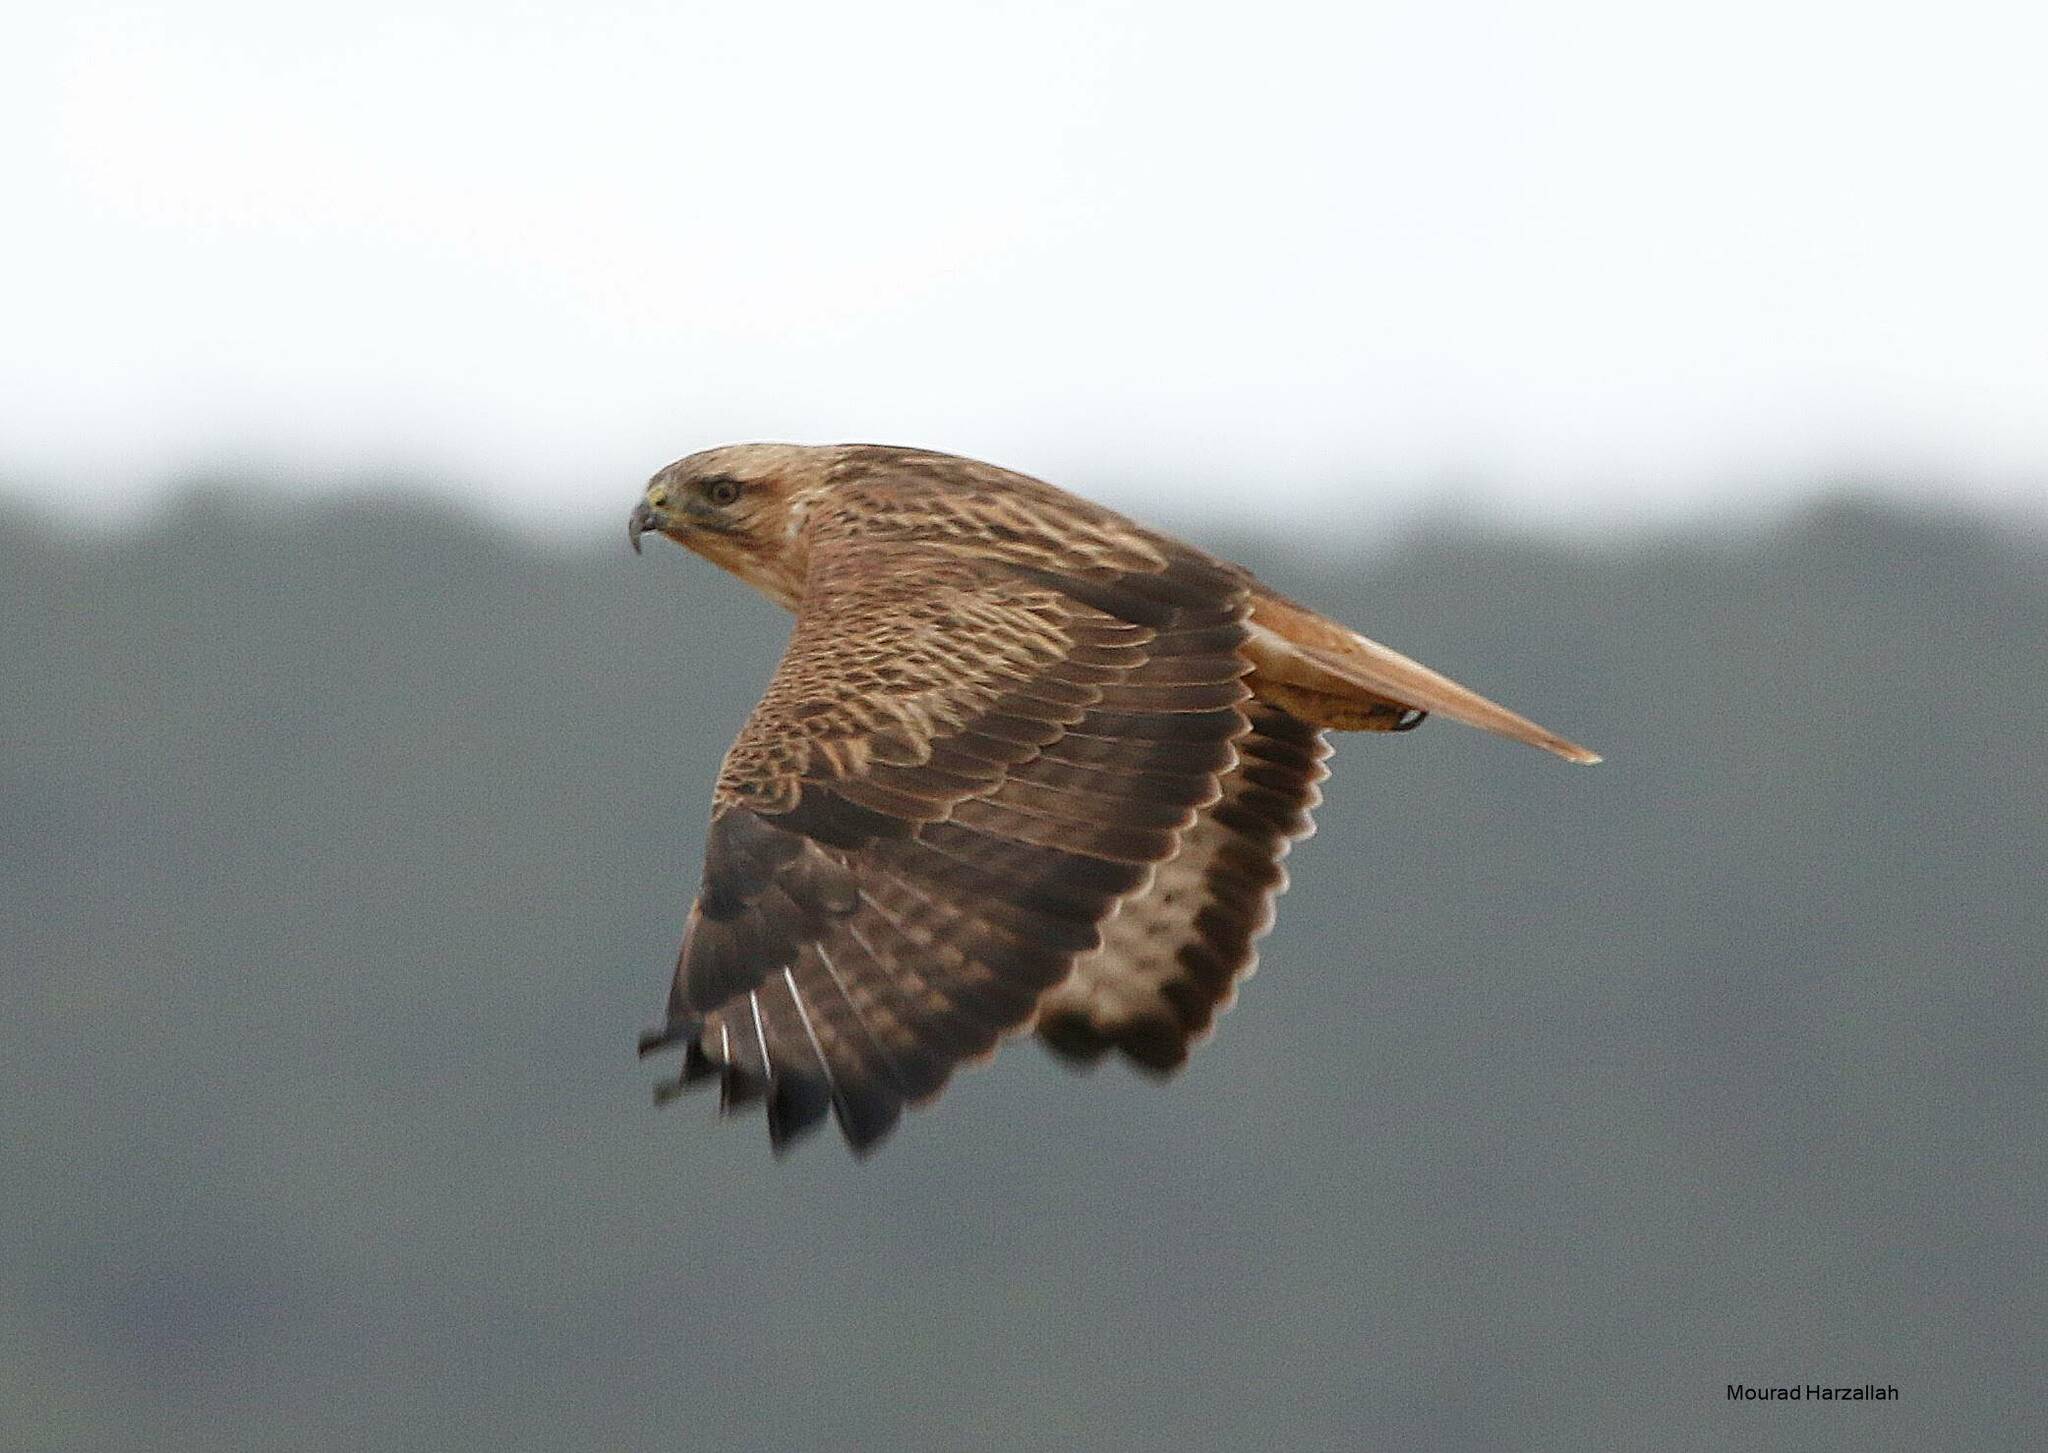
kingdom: Animalia
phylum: Chordata
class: Aves
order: Accipitriformes
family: Accipitridae
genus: Buteo
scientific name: Buteo rufinus
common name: Long-legged buzzard
